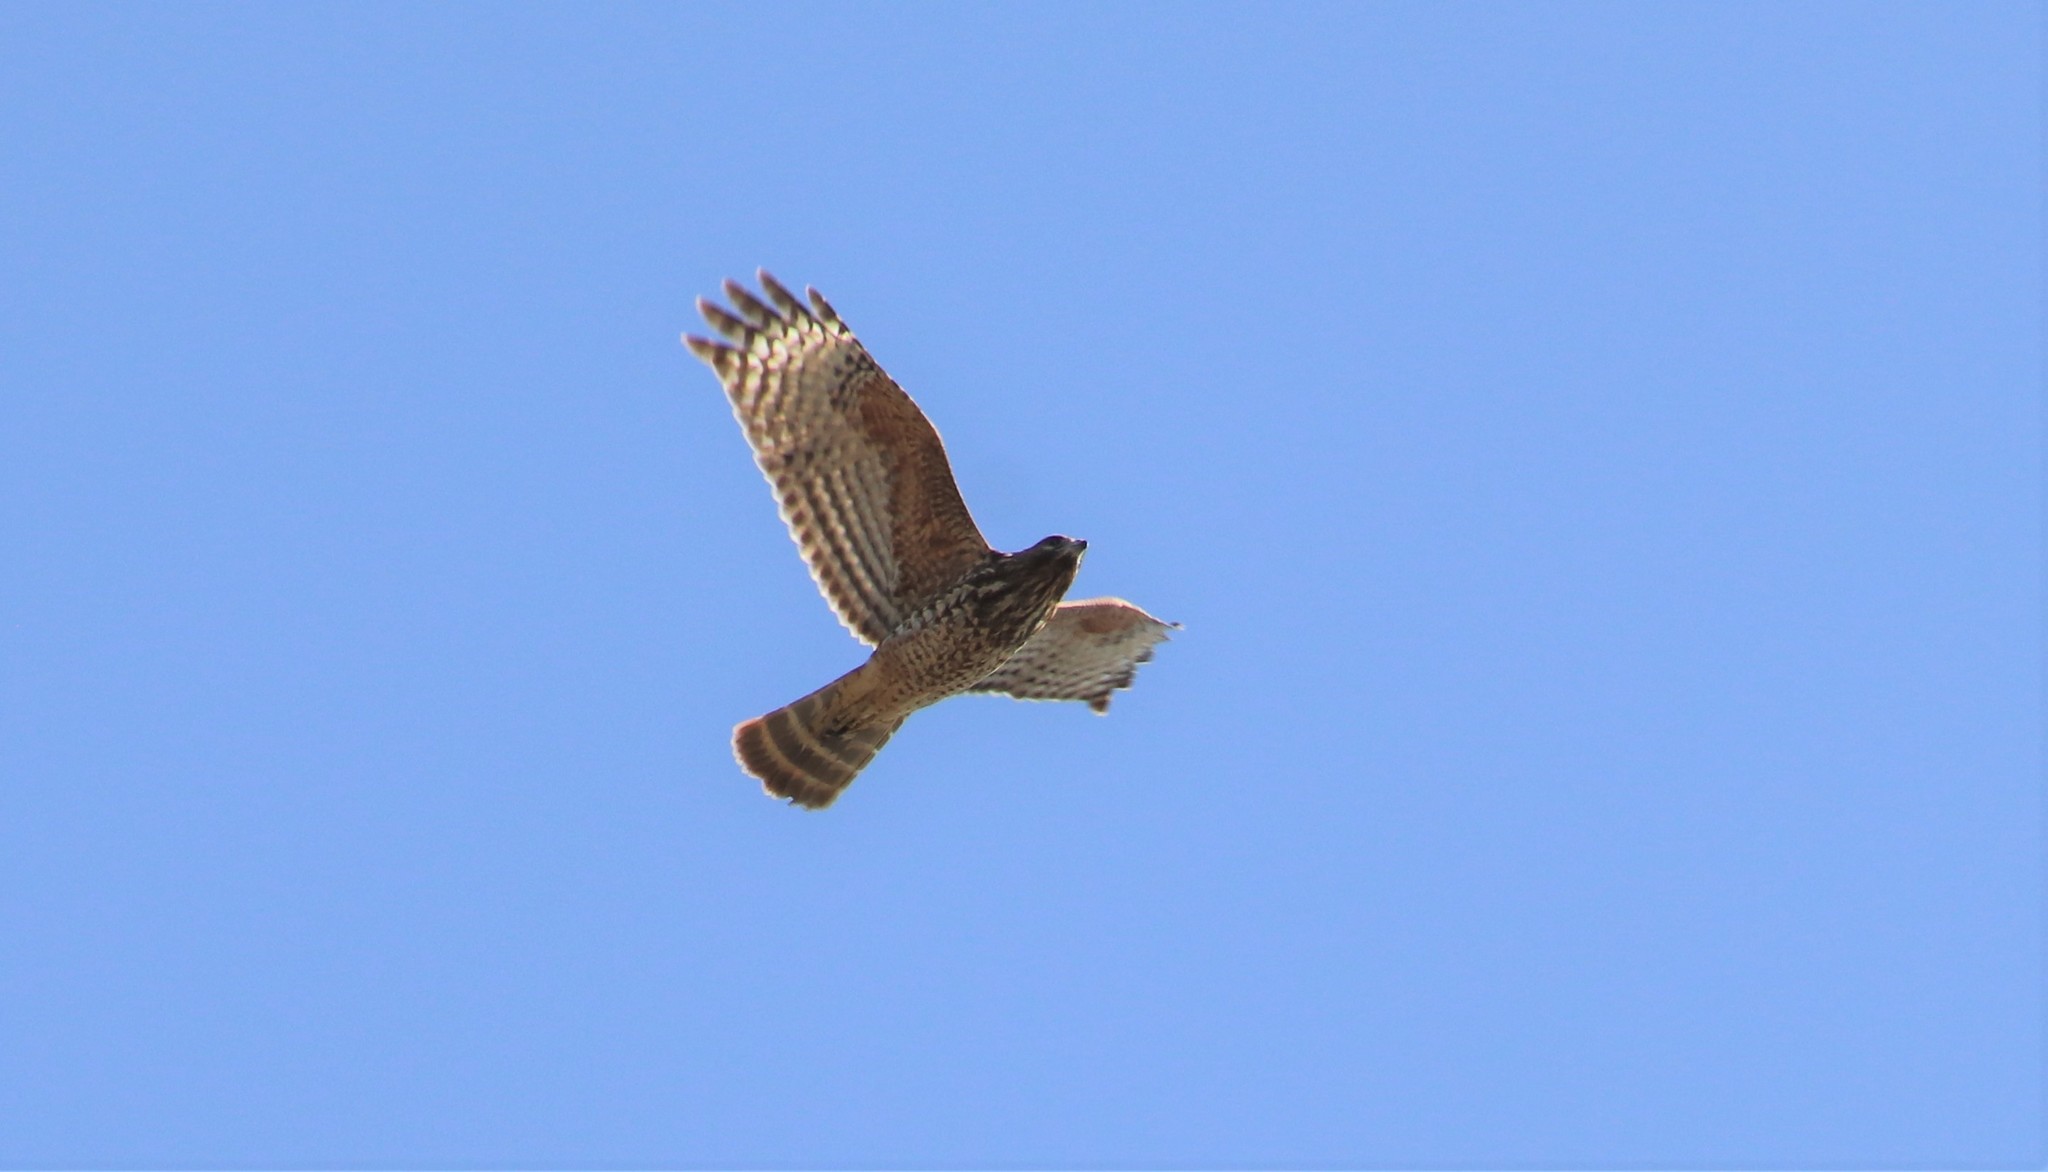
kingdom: Animalia
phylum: Chordata
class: Aves
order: Accipitriformes
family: Accipitridae
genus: Buteo
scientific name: Buteo lineatus
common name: Red-shouldered hawk
